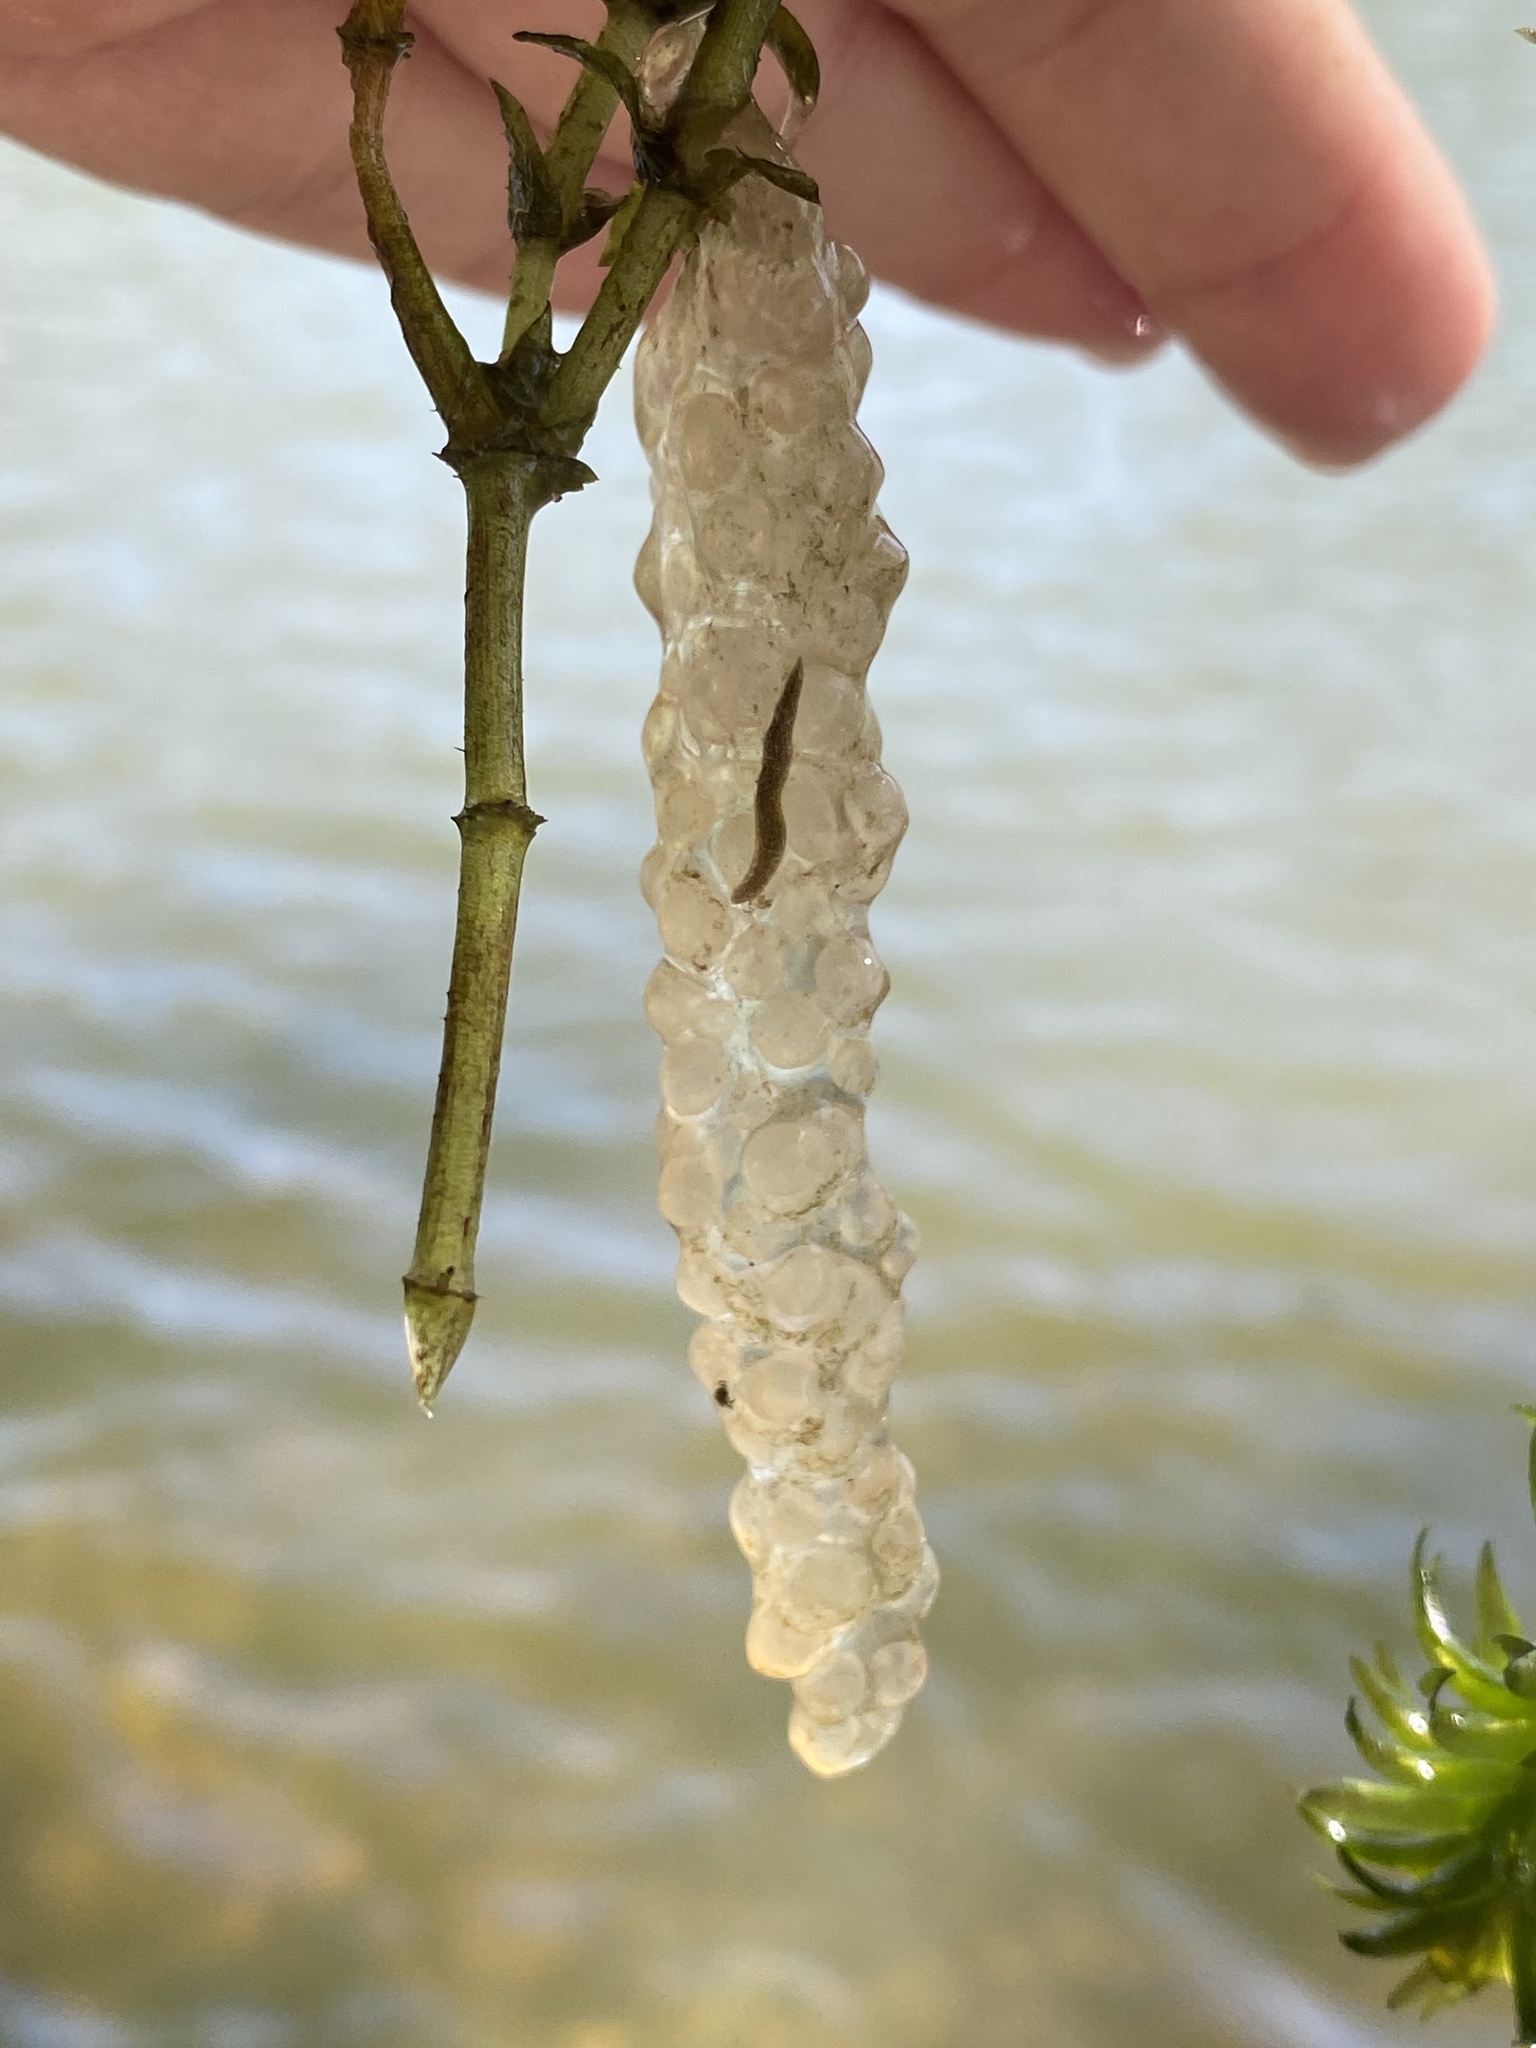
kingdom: Animalia
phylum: Mollusca
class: Gastropoda
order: Architaenioglossa
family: Ampullariidae
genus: Asolene
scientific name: Asolene platae
